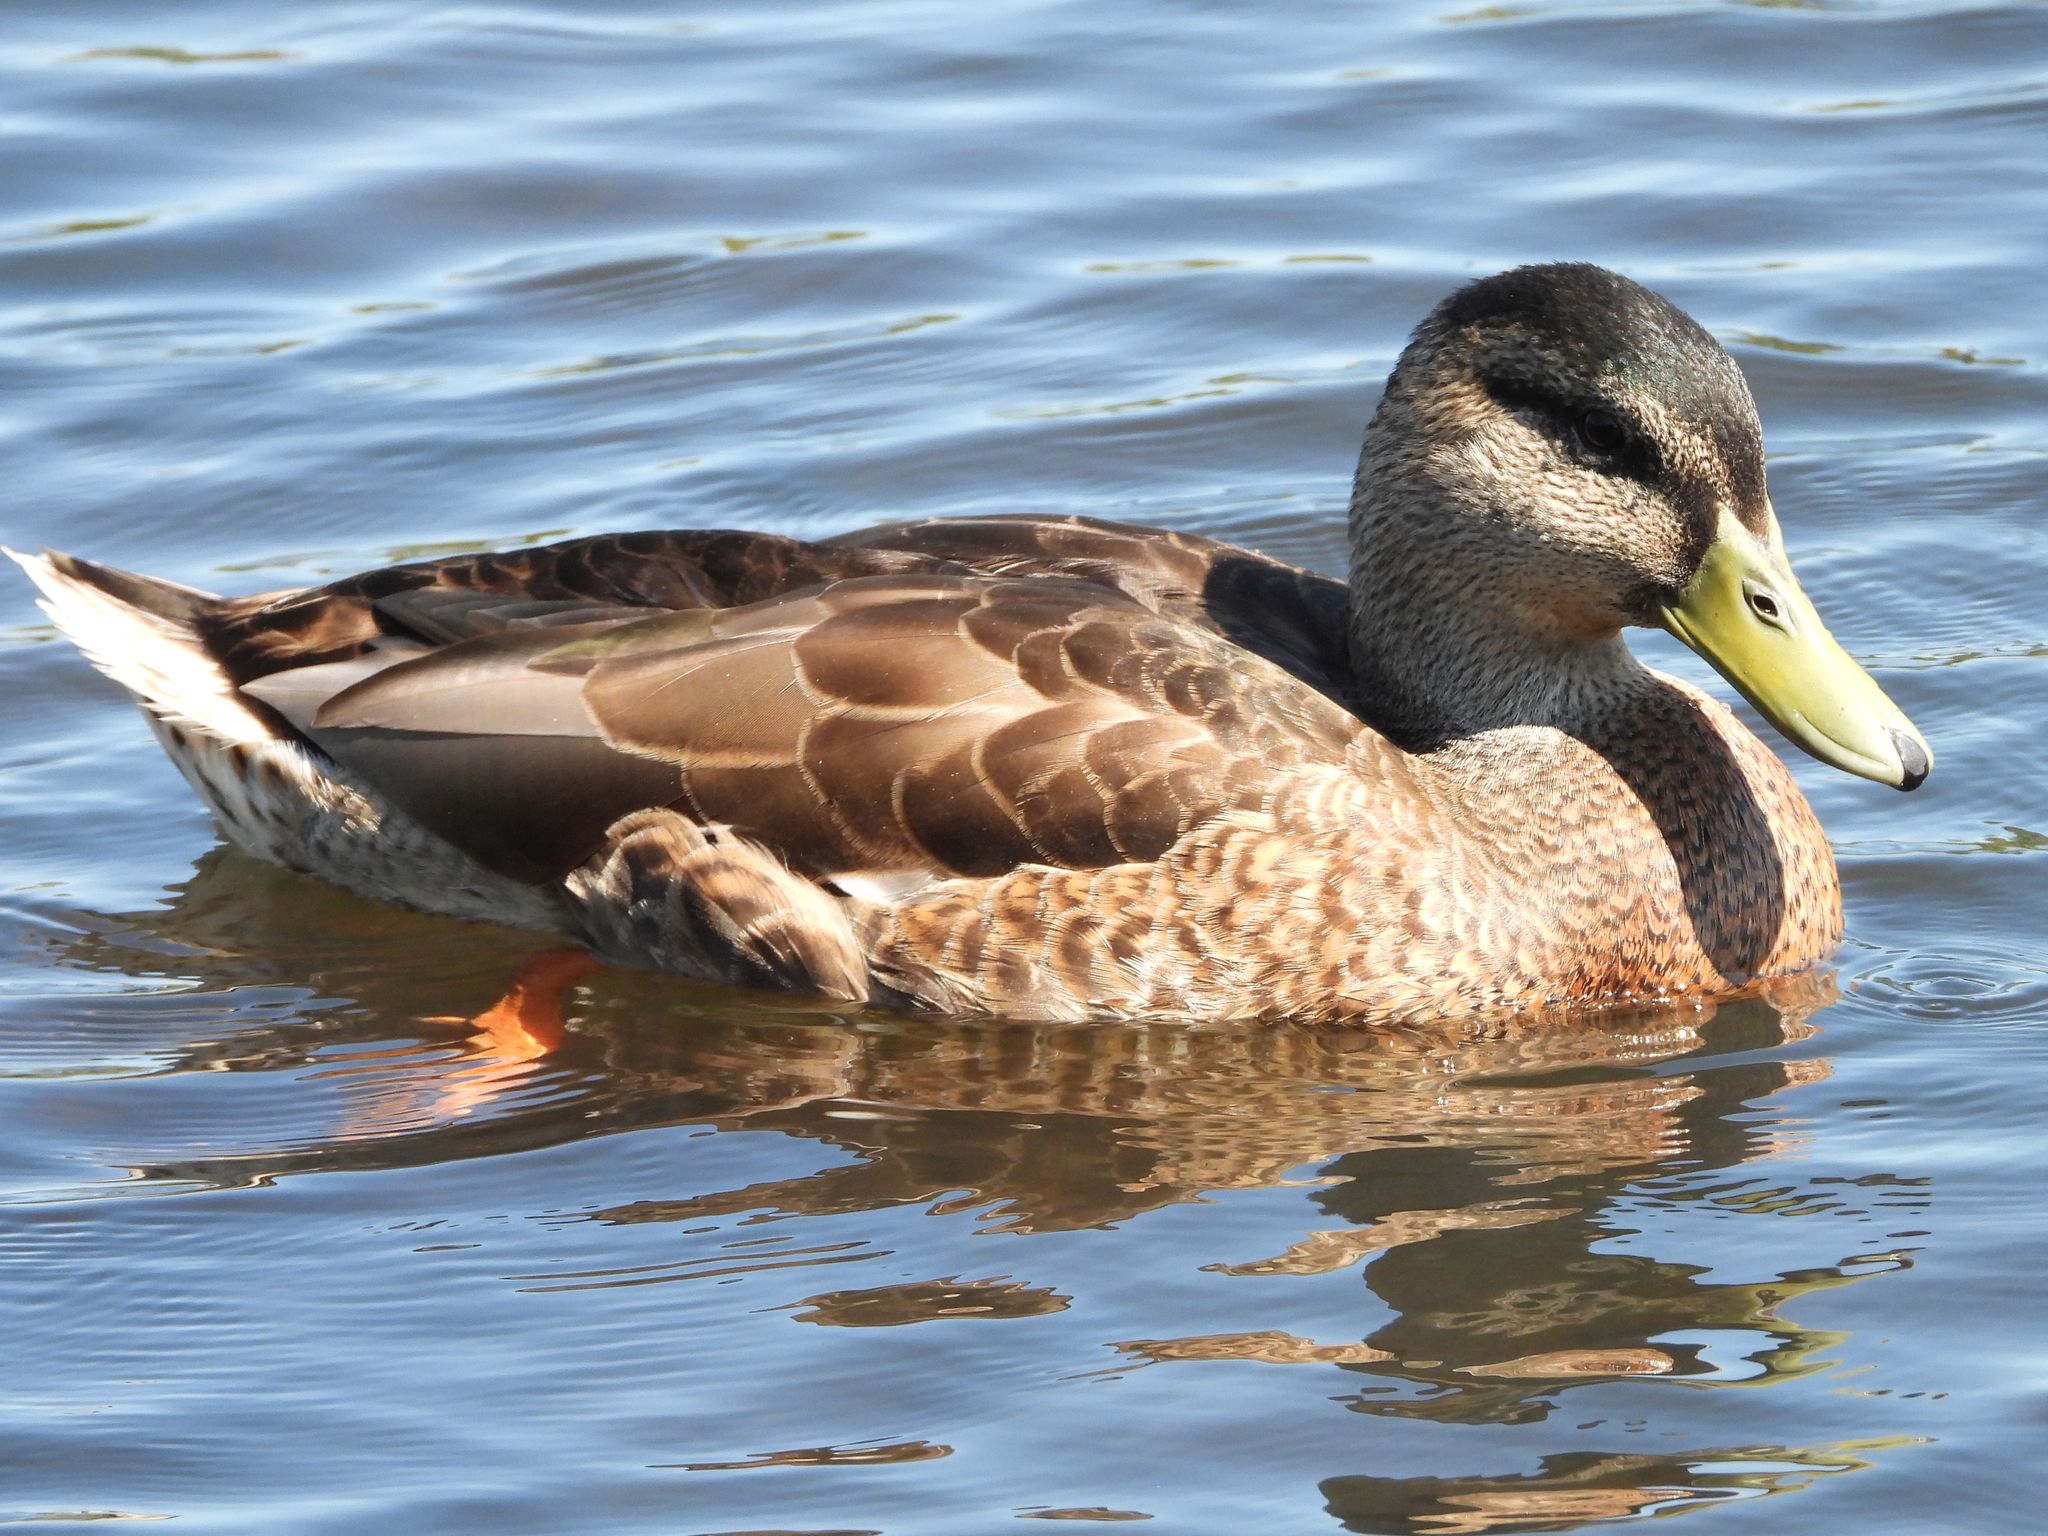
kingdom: Animalia
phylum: Chordata
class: Aves
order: Anseriformes
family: Anatidae
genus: Anas
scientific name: Anas platyrhynchos
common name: Mallard
